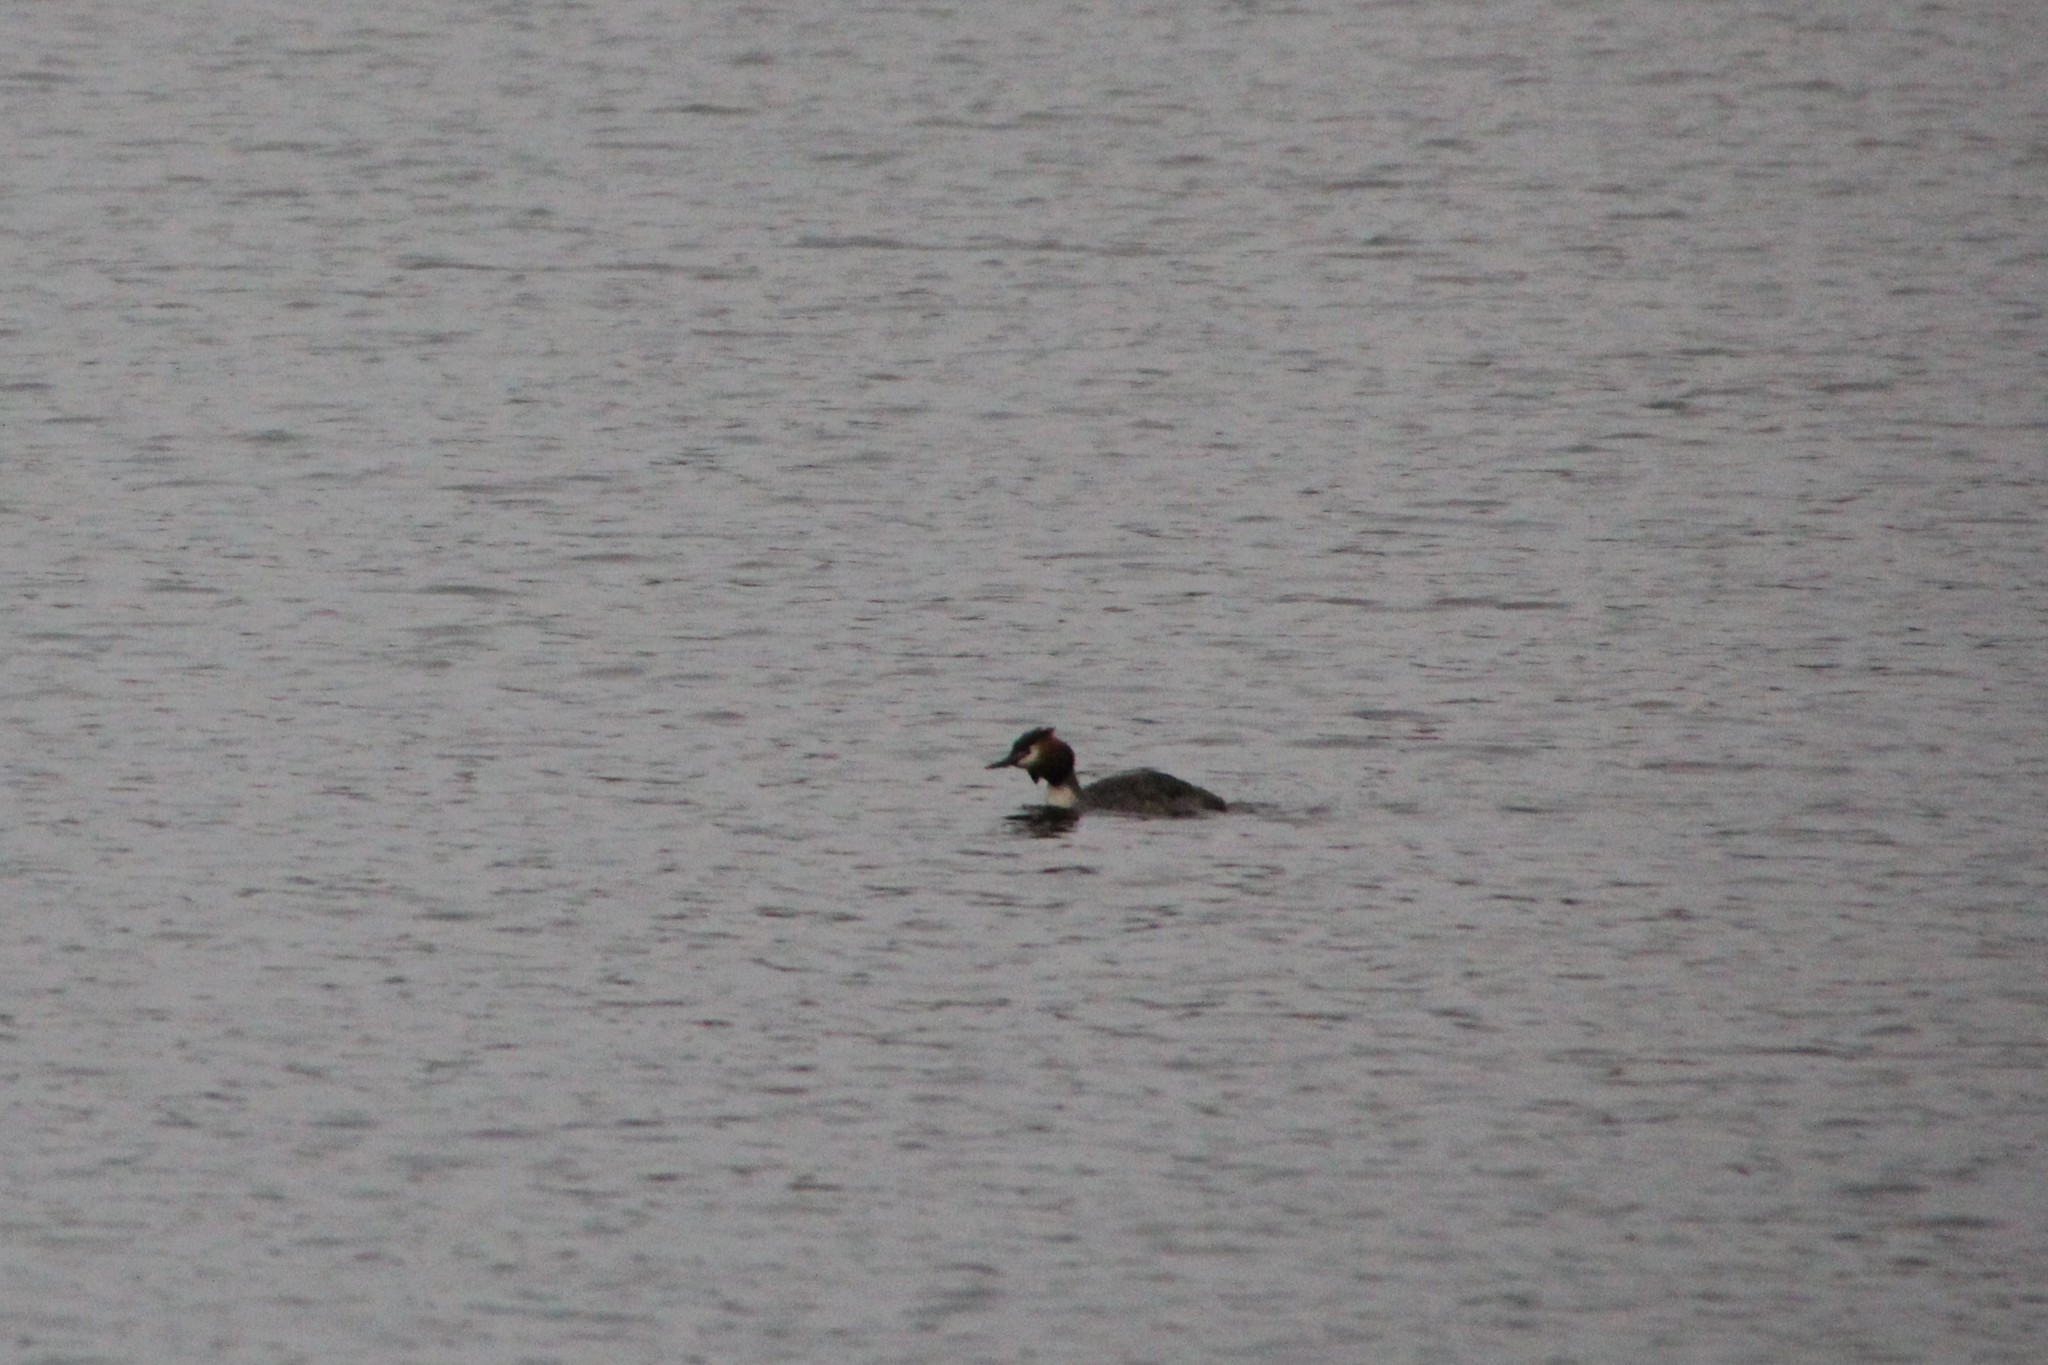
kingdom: Animalia
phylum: Chordata
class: Aves
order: Podicipediformes
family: Podicipedidae
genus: Podiceps
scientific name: Podiceps cristatus
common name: Great crested grebe
